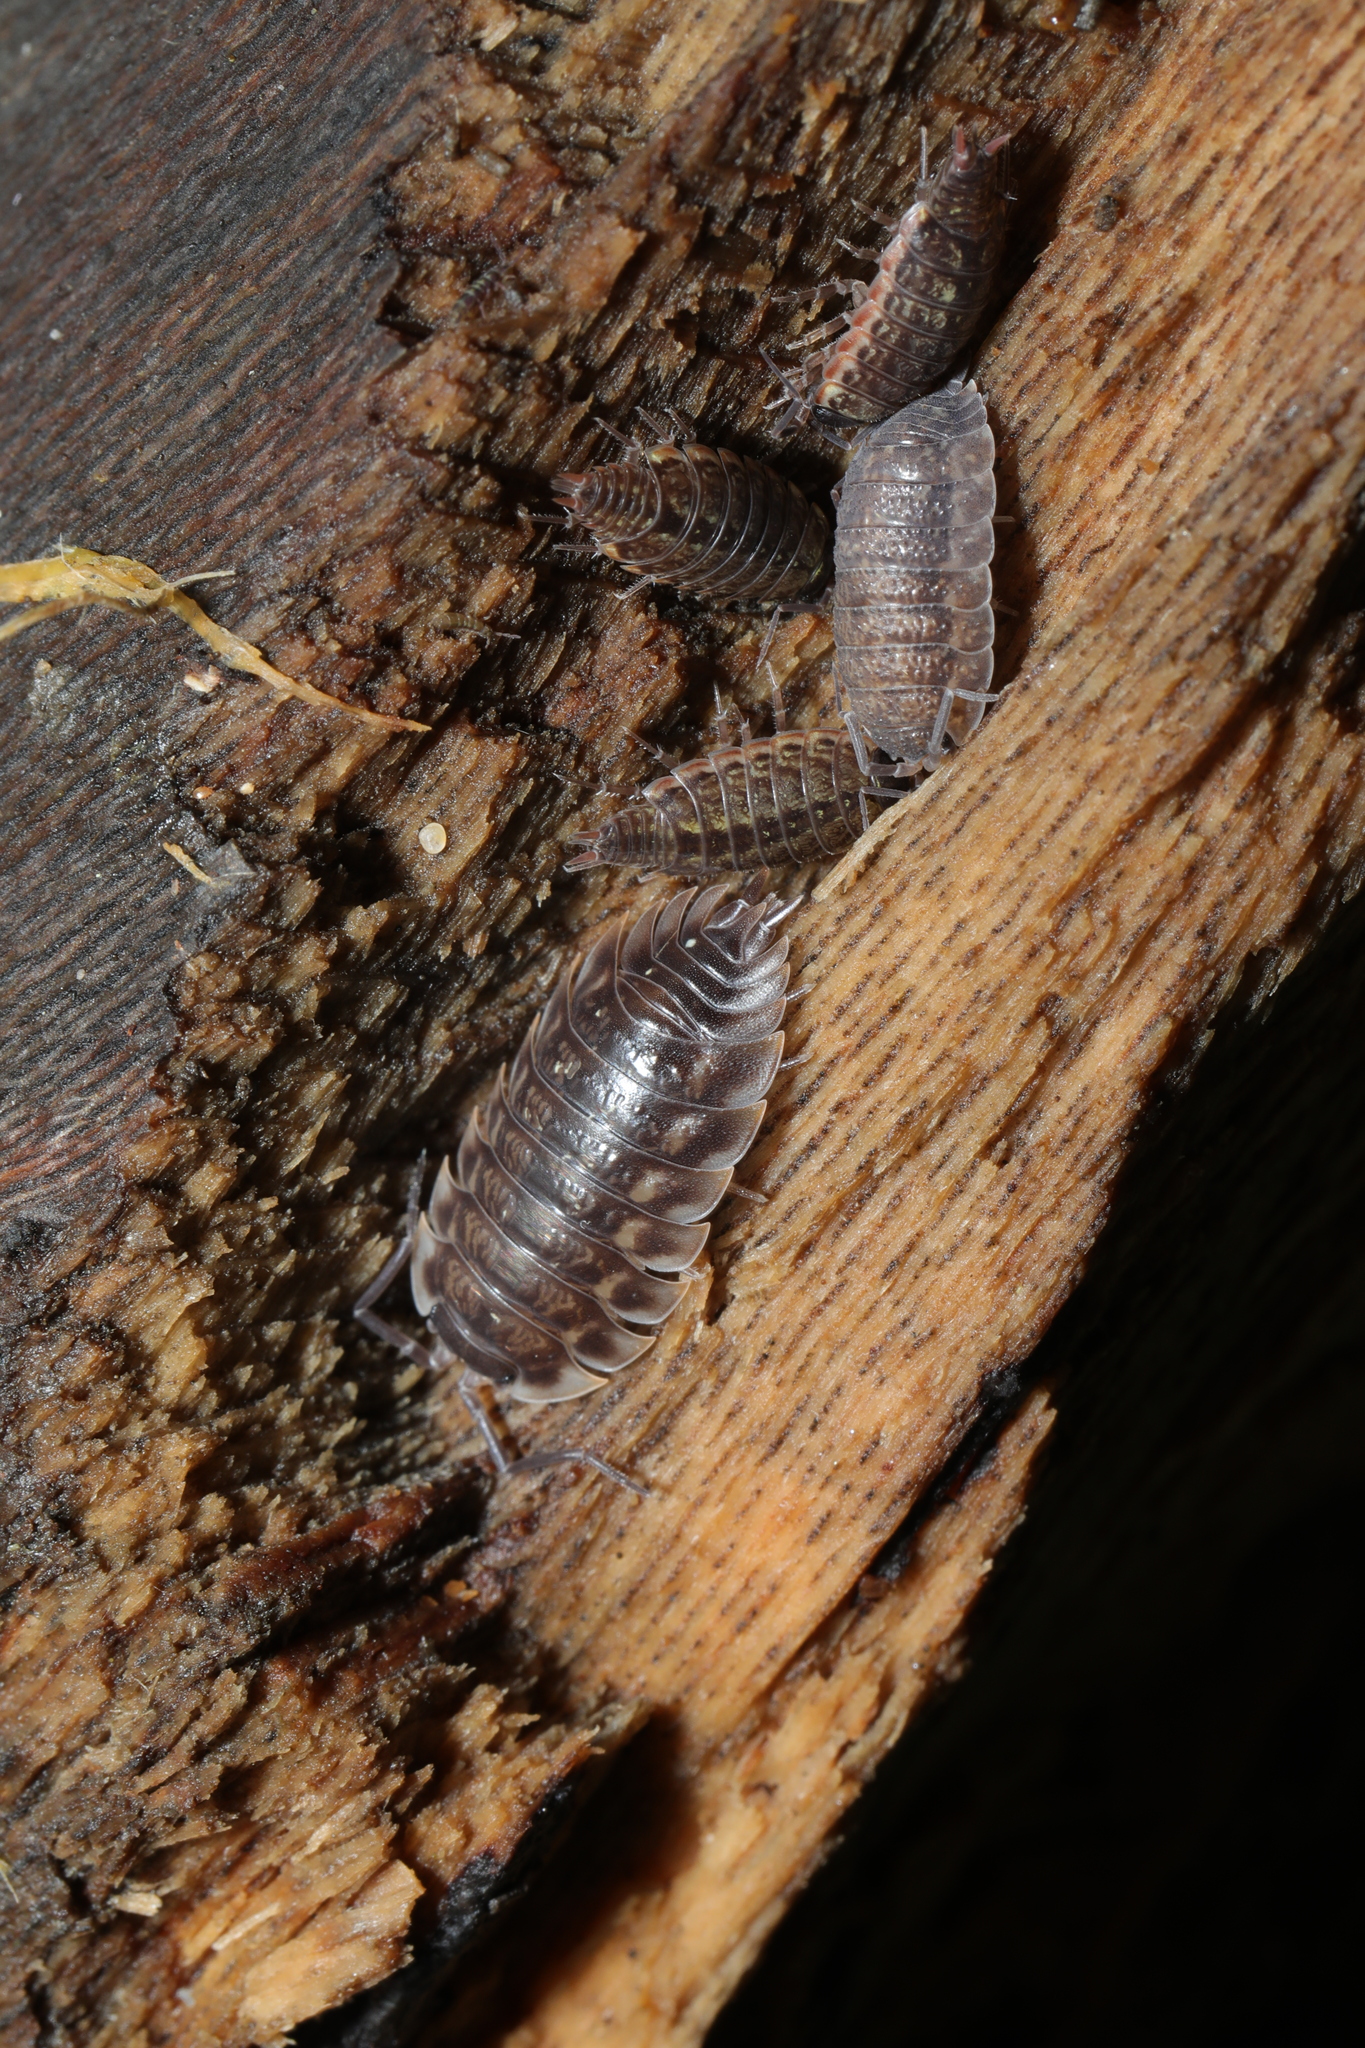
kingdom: Animalia
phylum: Arthropoda
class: Malacostraca
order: Isopoda
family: Oniscidae
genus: Oniscus
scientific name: Oniscus asellus
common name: Common shiny woodlouse
